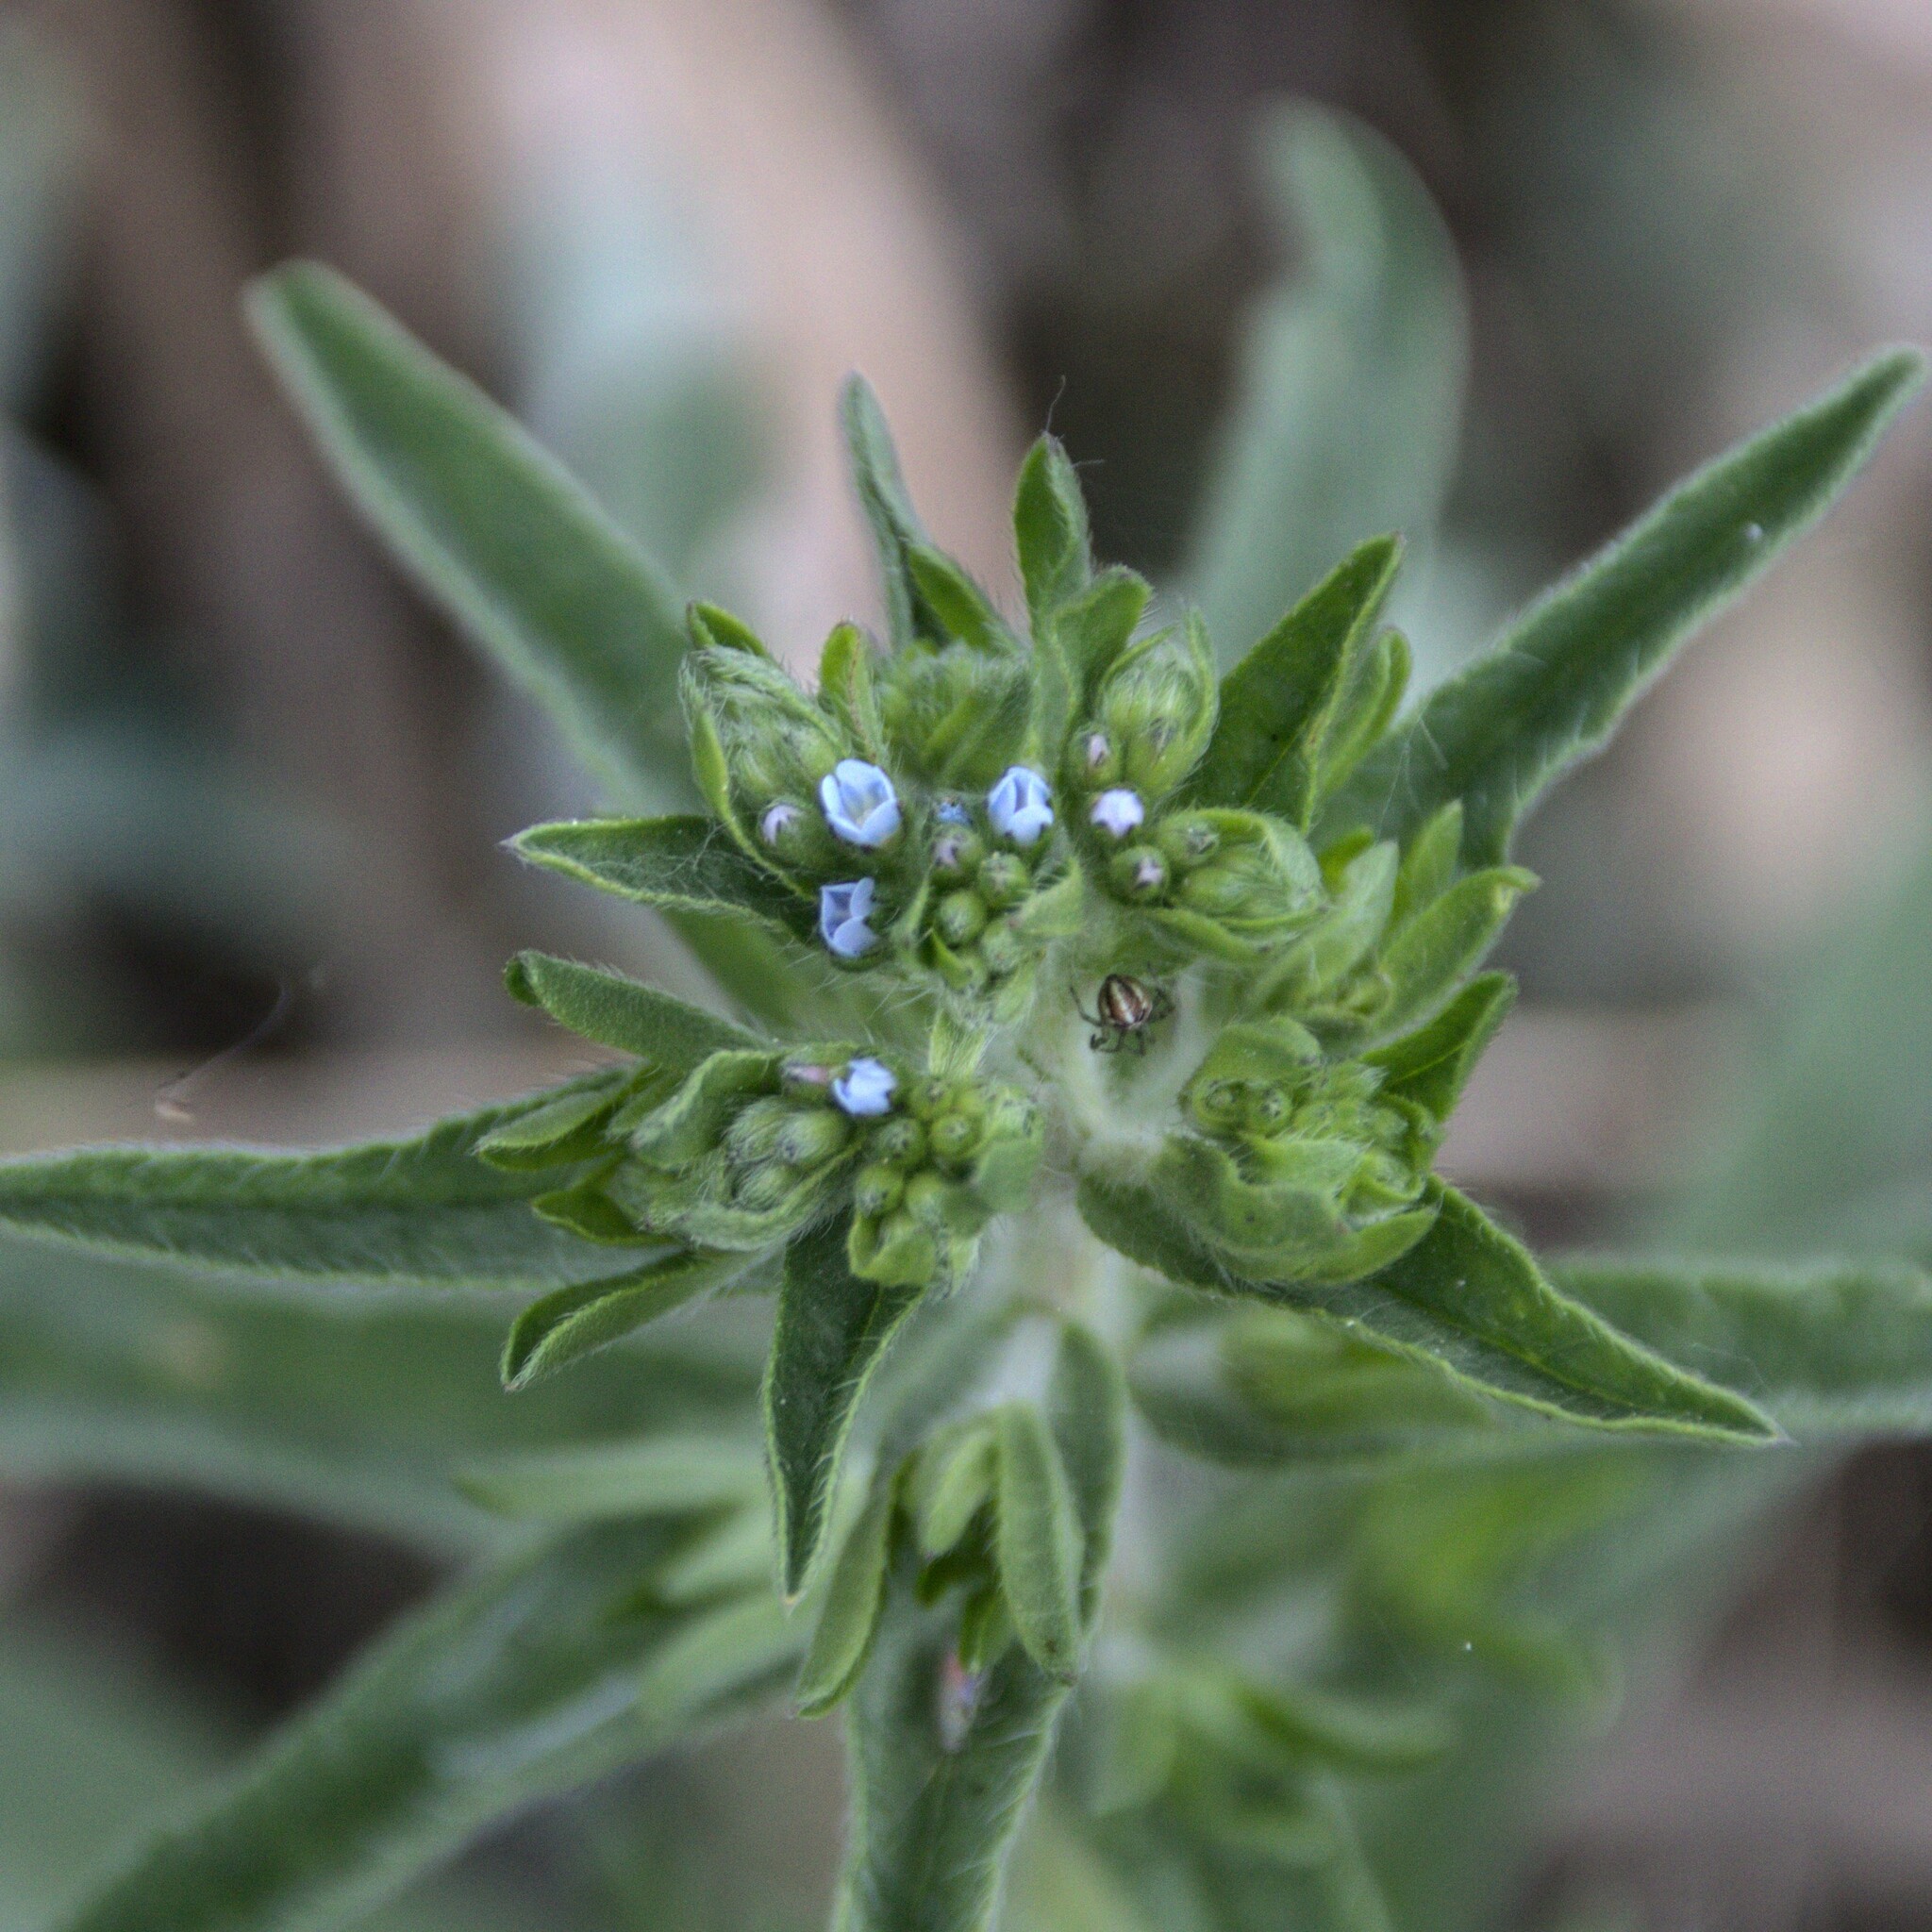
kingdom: Plantae
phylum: Tracheophyta
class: Magnoliopsida
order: Boraginales
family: Boraginaceae
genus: Lappula
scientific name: Lappula squarrosa
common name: European stickseed
